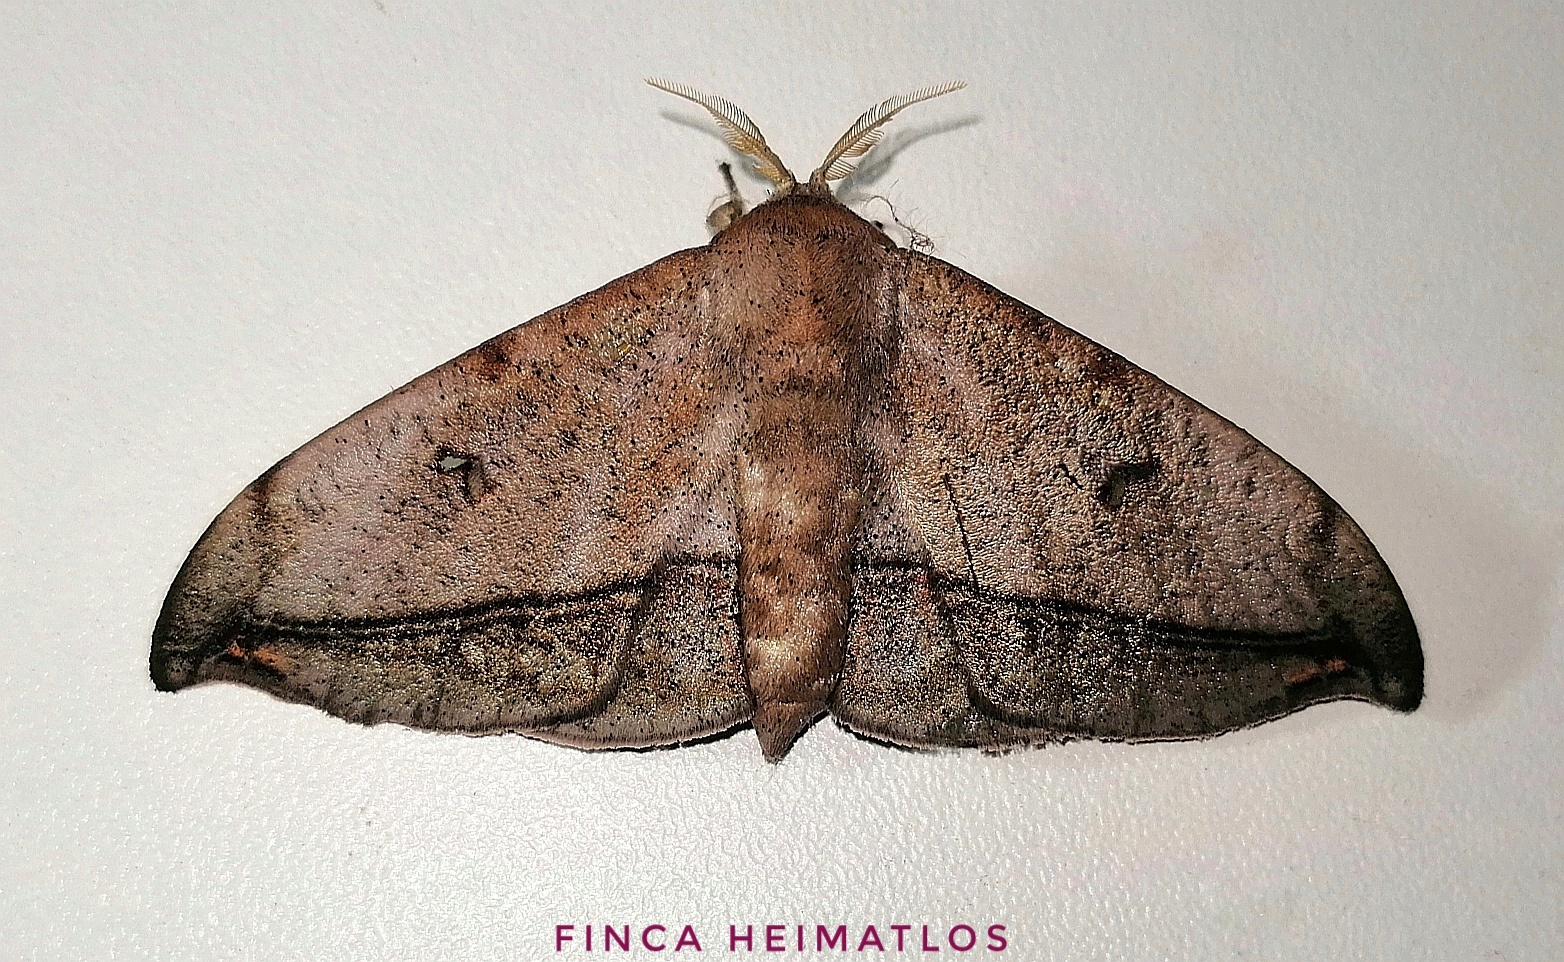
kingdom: Animalia
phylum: Arthropoda
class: Insecta
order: Lepidoptera
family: Mimallonidae
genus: Cicinnus
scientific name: Cicinnus fogia
